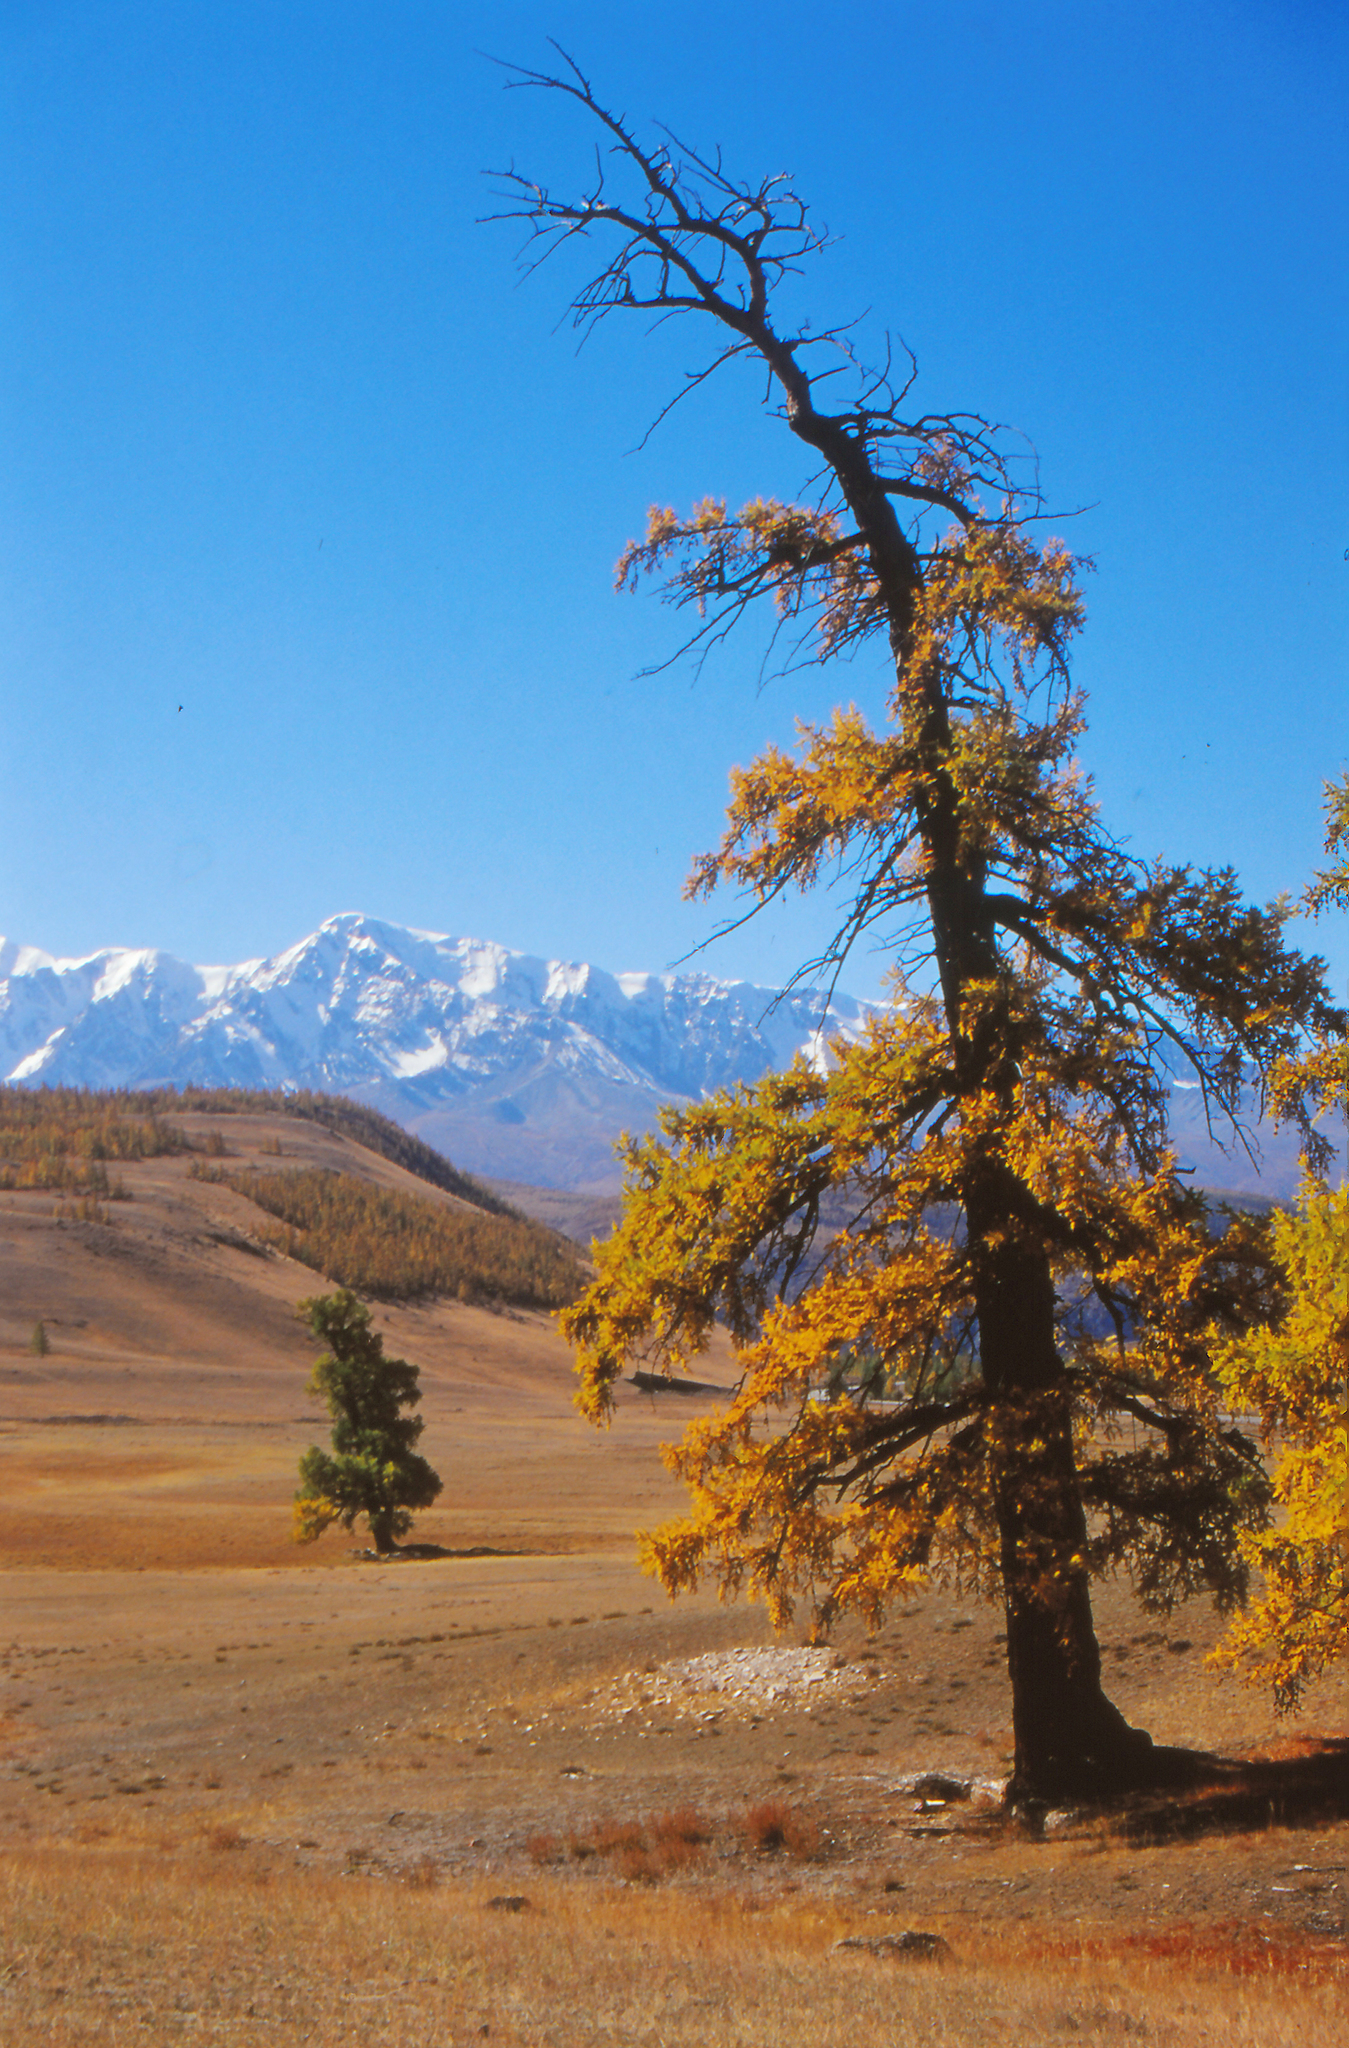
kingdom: Plantae
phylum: Tracheophyta
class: Pinopsida
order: Pinales
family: Pinaceae
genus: Larix
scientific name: Larix sibirica
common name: Siberian larch
